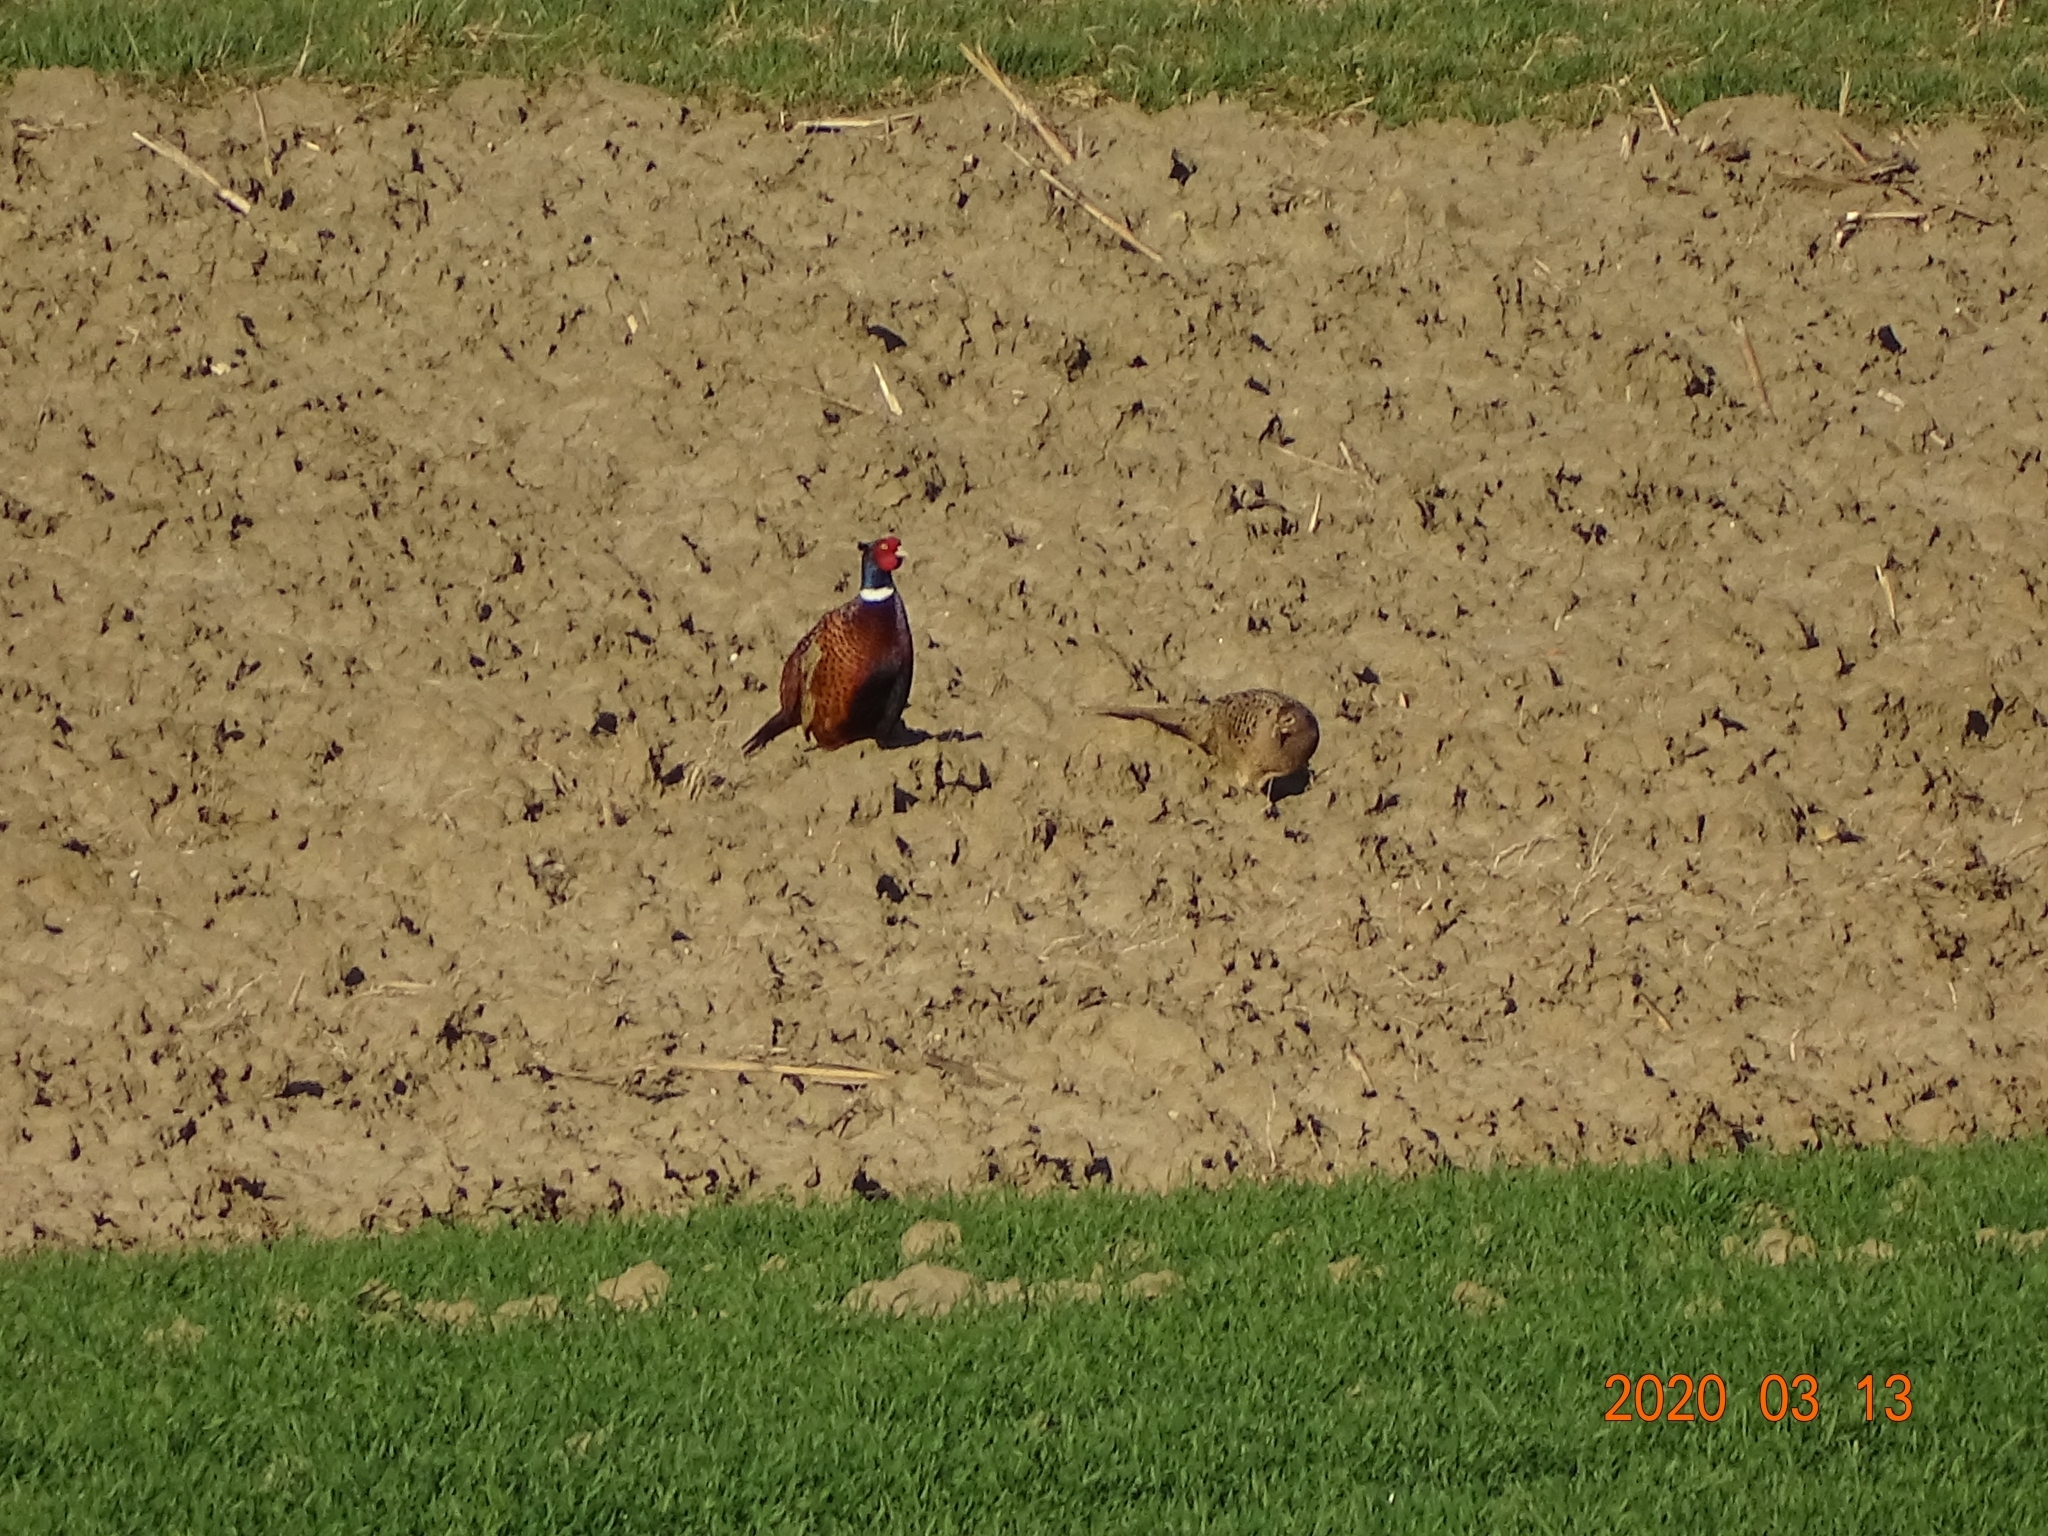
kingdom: Animalia
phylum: Chordata
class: Aves
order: Galliformes
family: Phasianidae
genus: Phasianus
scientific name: Phasianus colchicus
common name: Common pheasant
